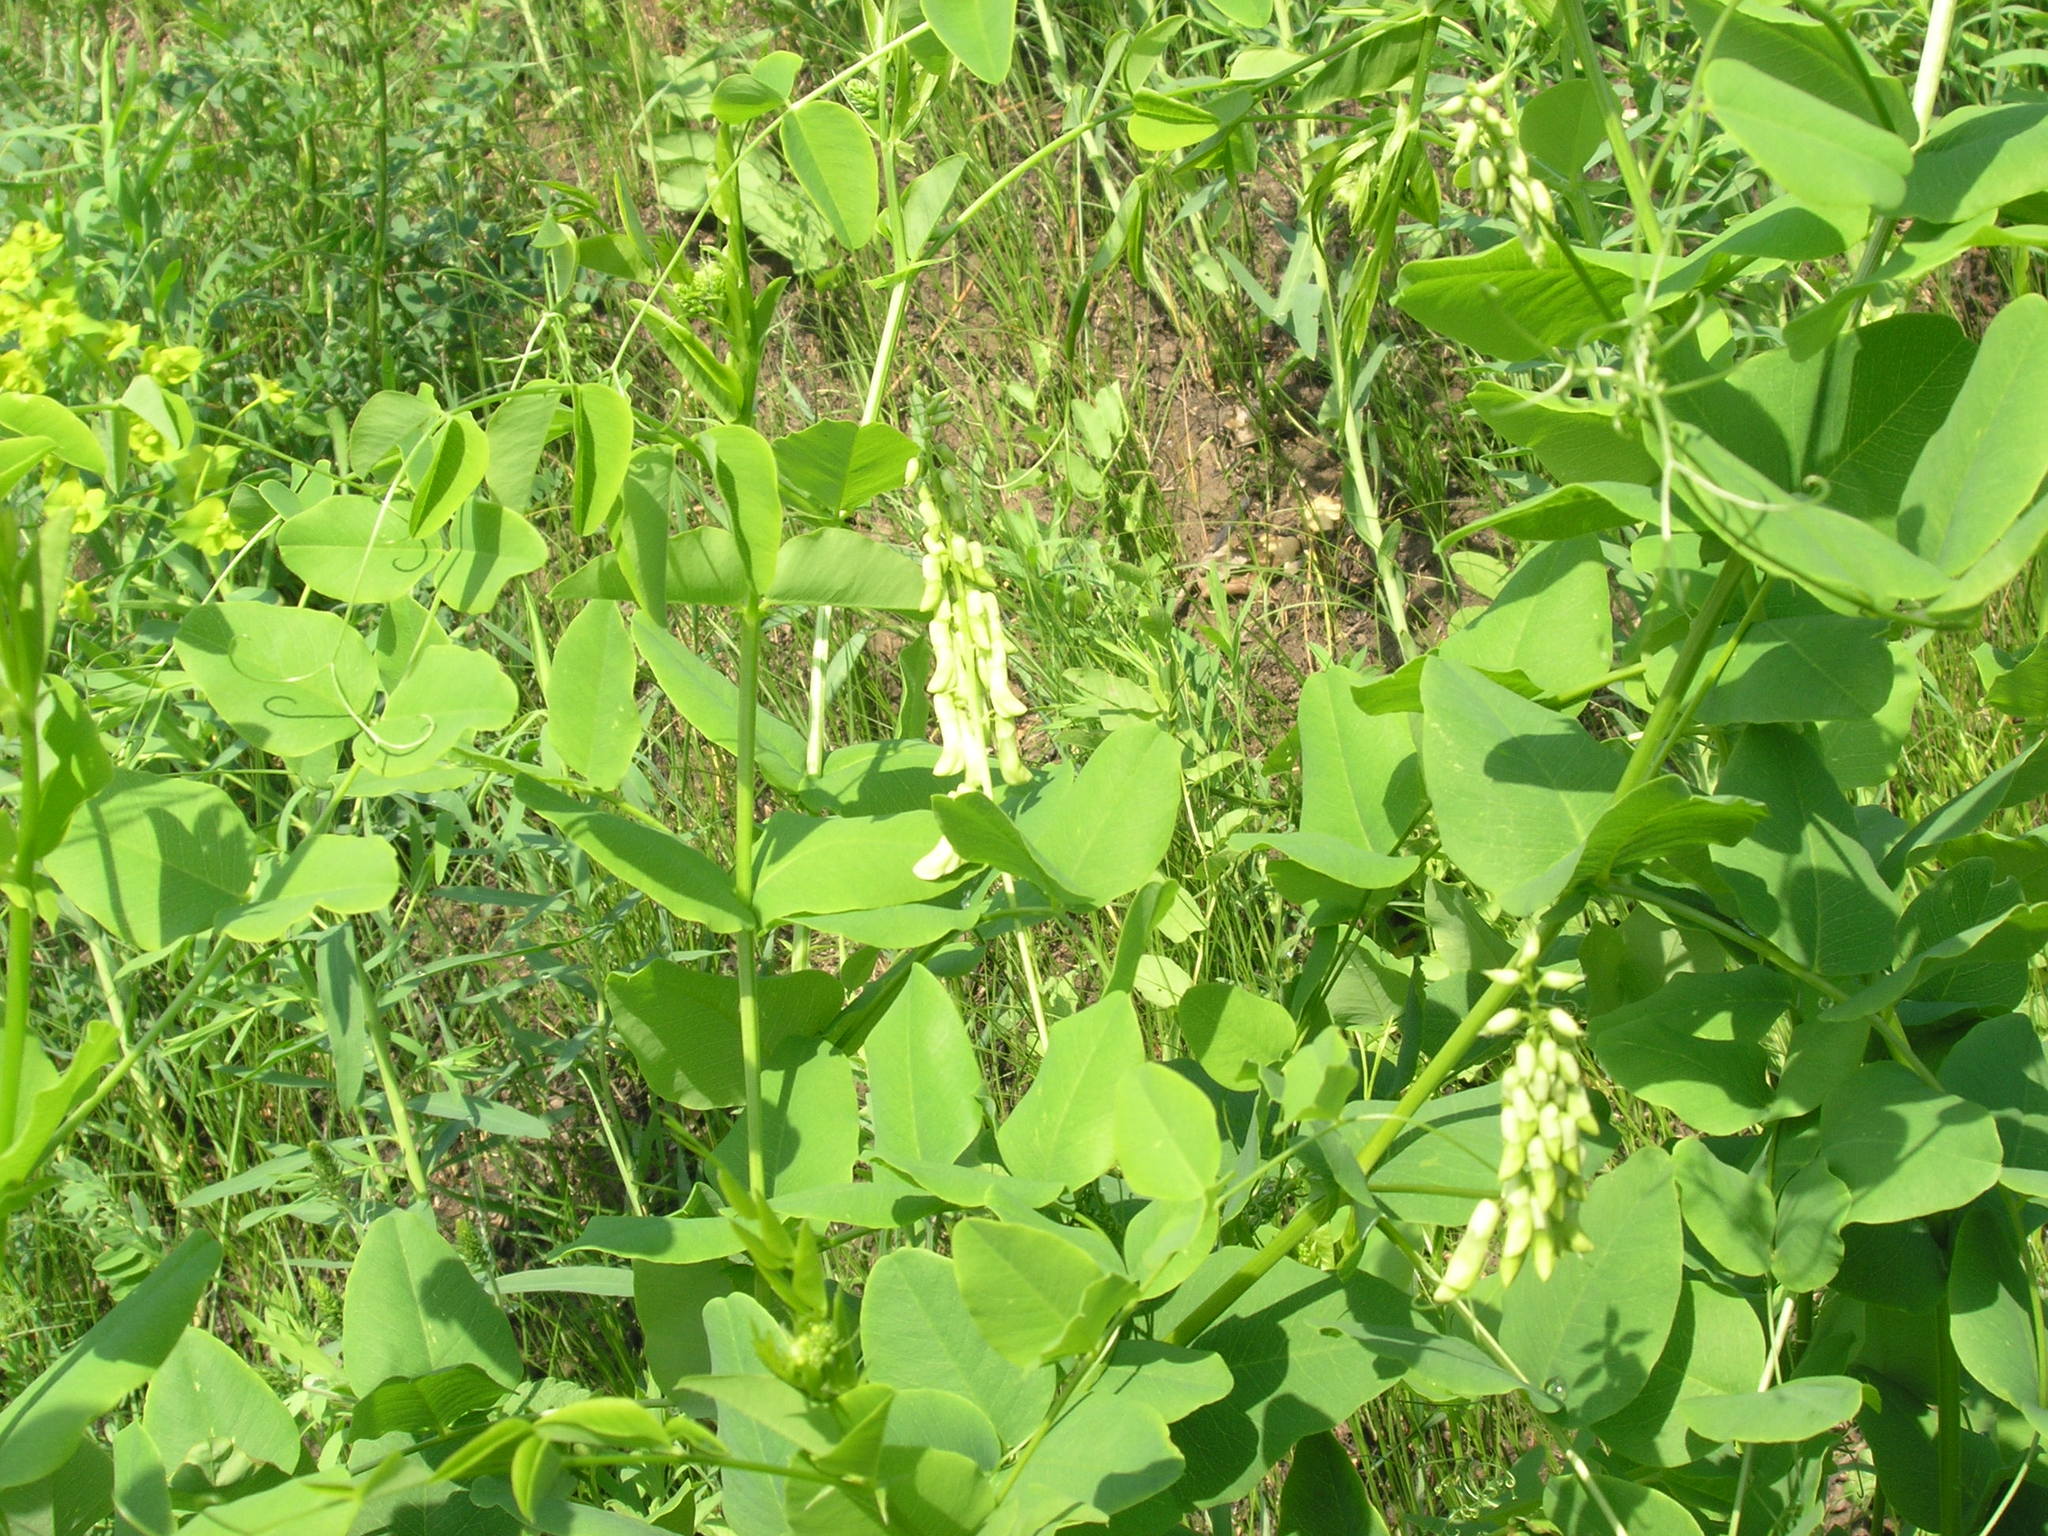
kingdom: Plantae
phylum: Tracheophyta
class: Magnoliopsida
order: Fabales
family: Fabaceae
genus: Vicia
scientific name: Vicia pisiformis
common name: Pale-flower vetch
